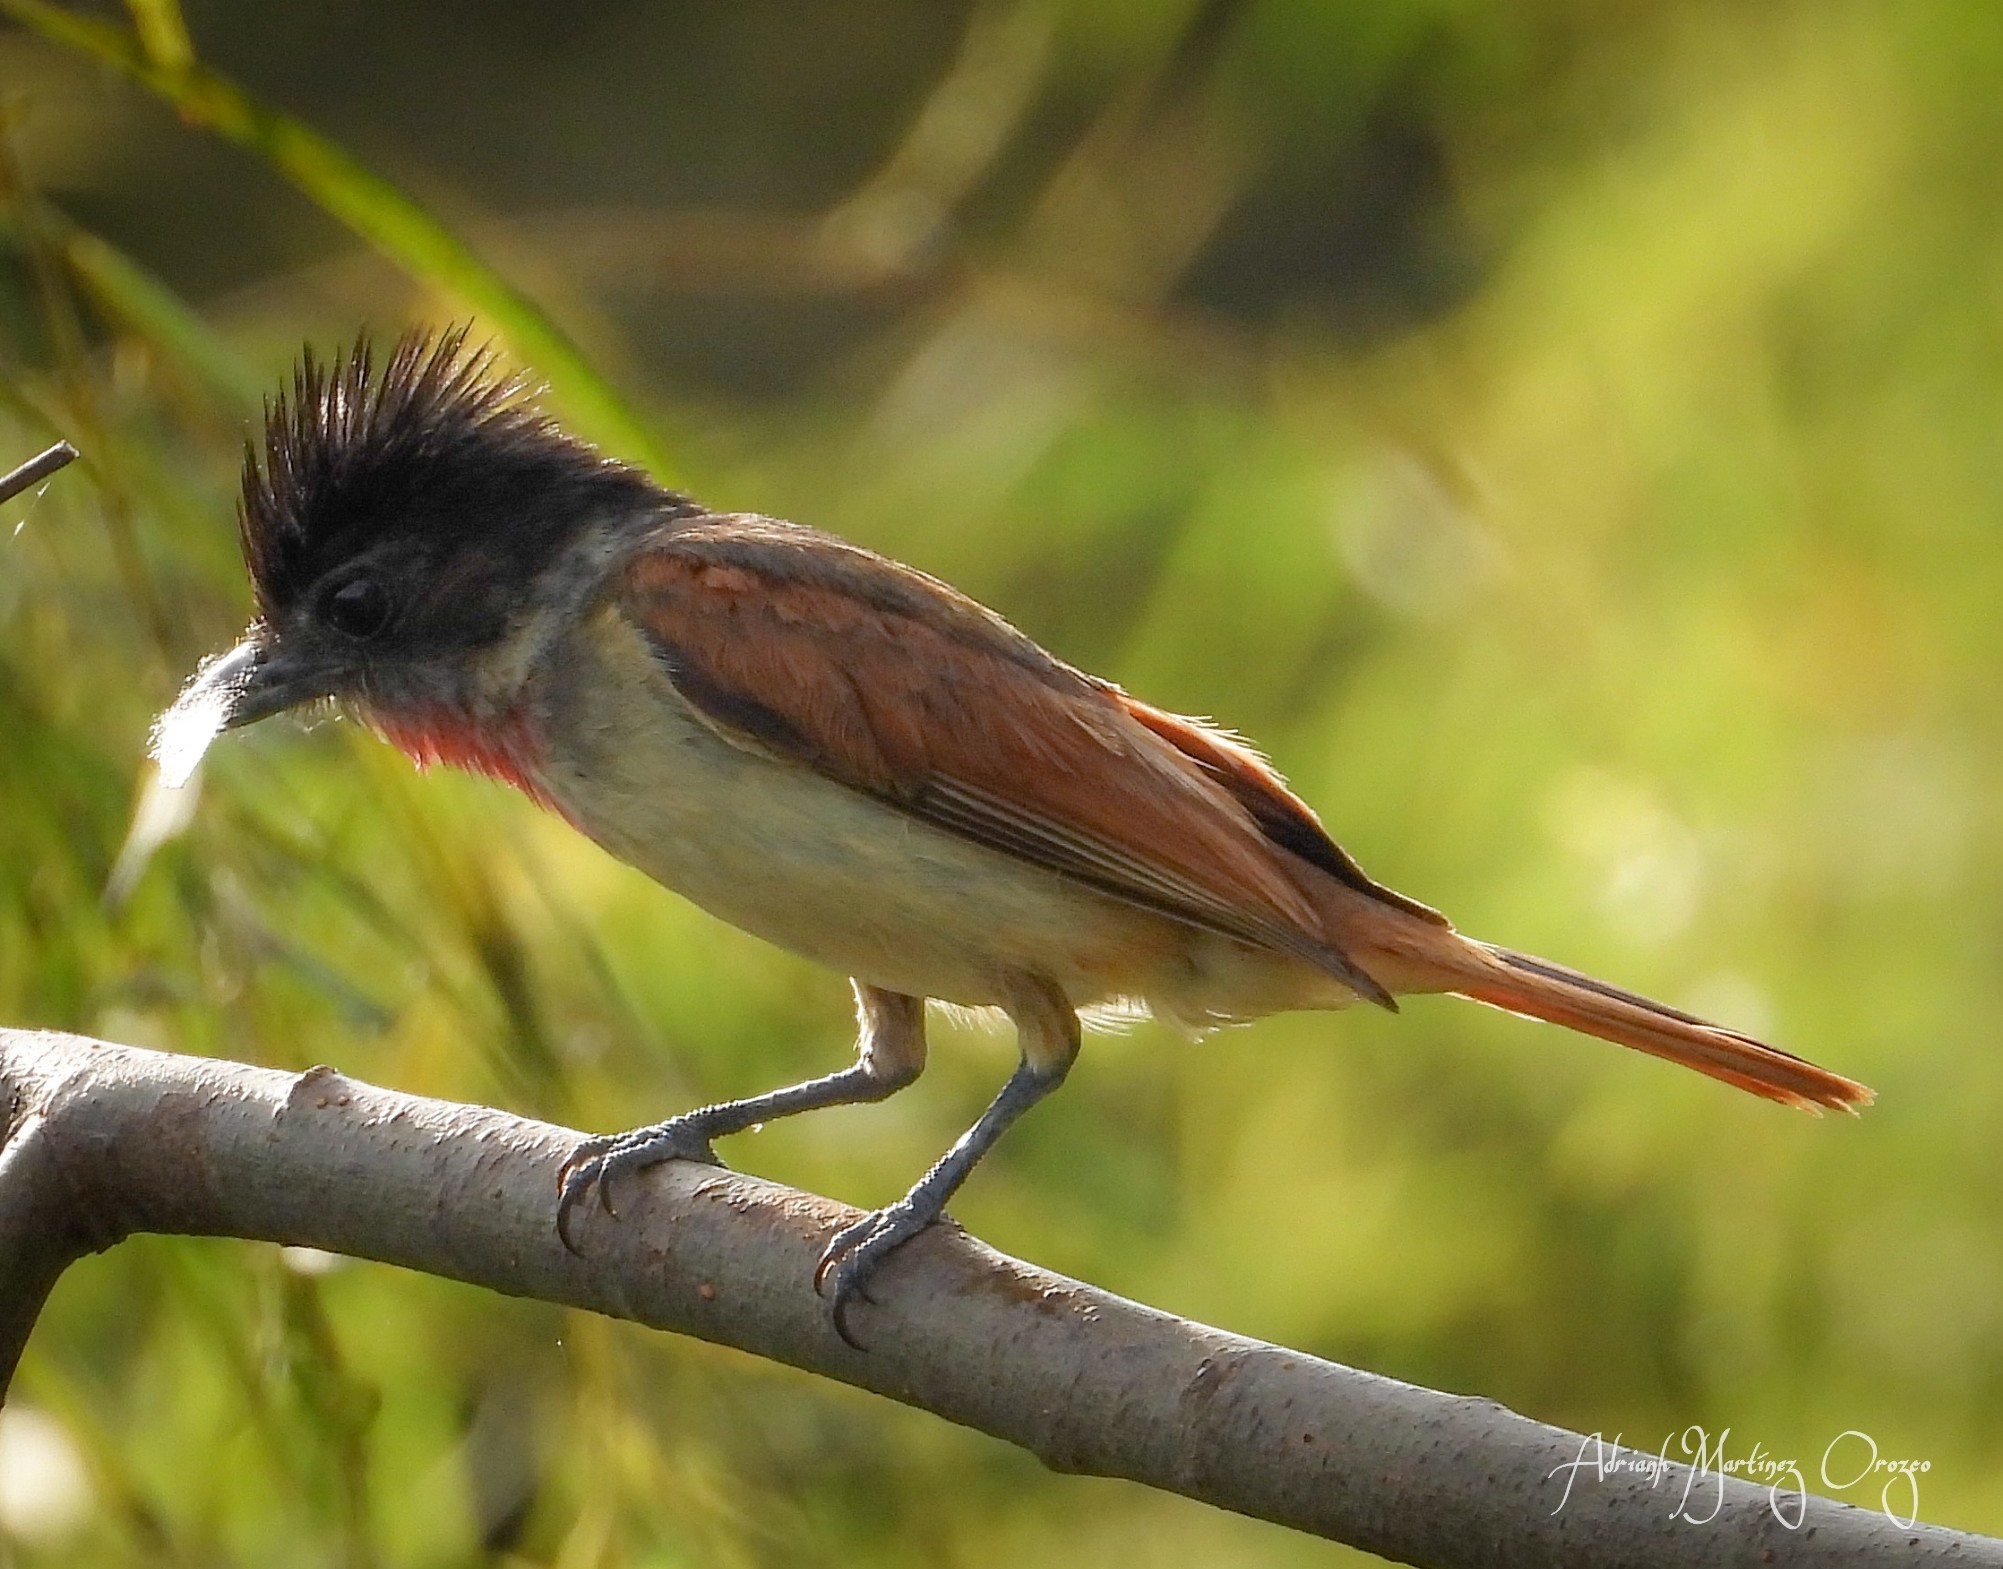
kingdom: Animalia
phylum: Chordata
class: Aves
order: Passeriformes
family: Cotingidae
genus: Pachyramphus
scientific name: Pachyramphus aglaiae
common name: Rose-throated becard
